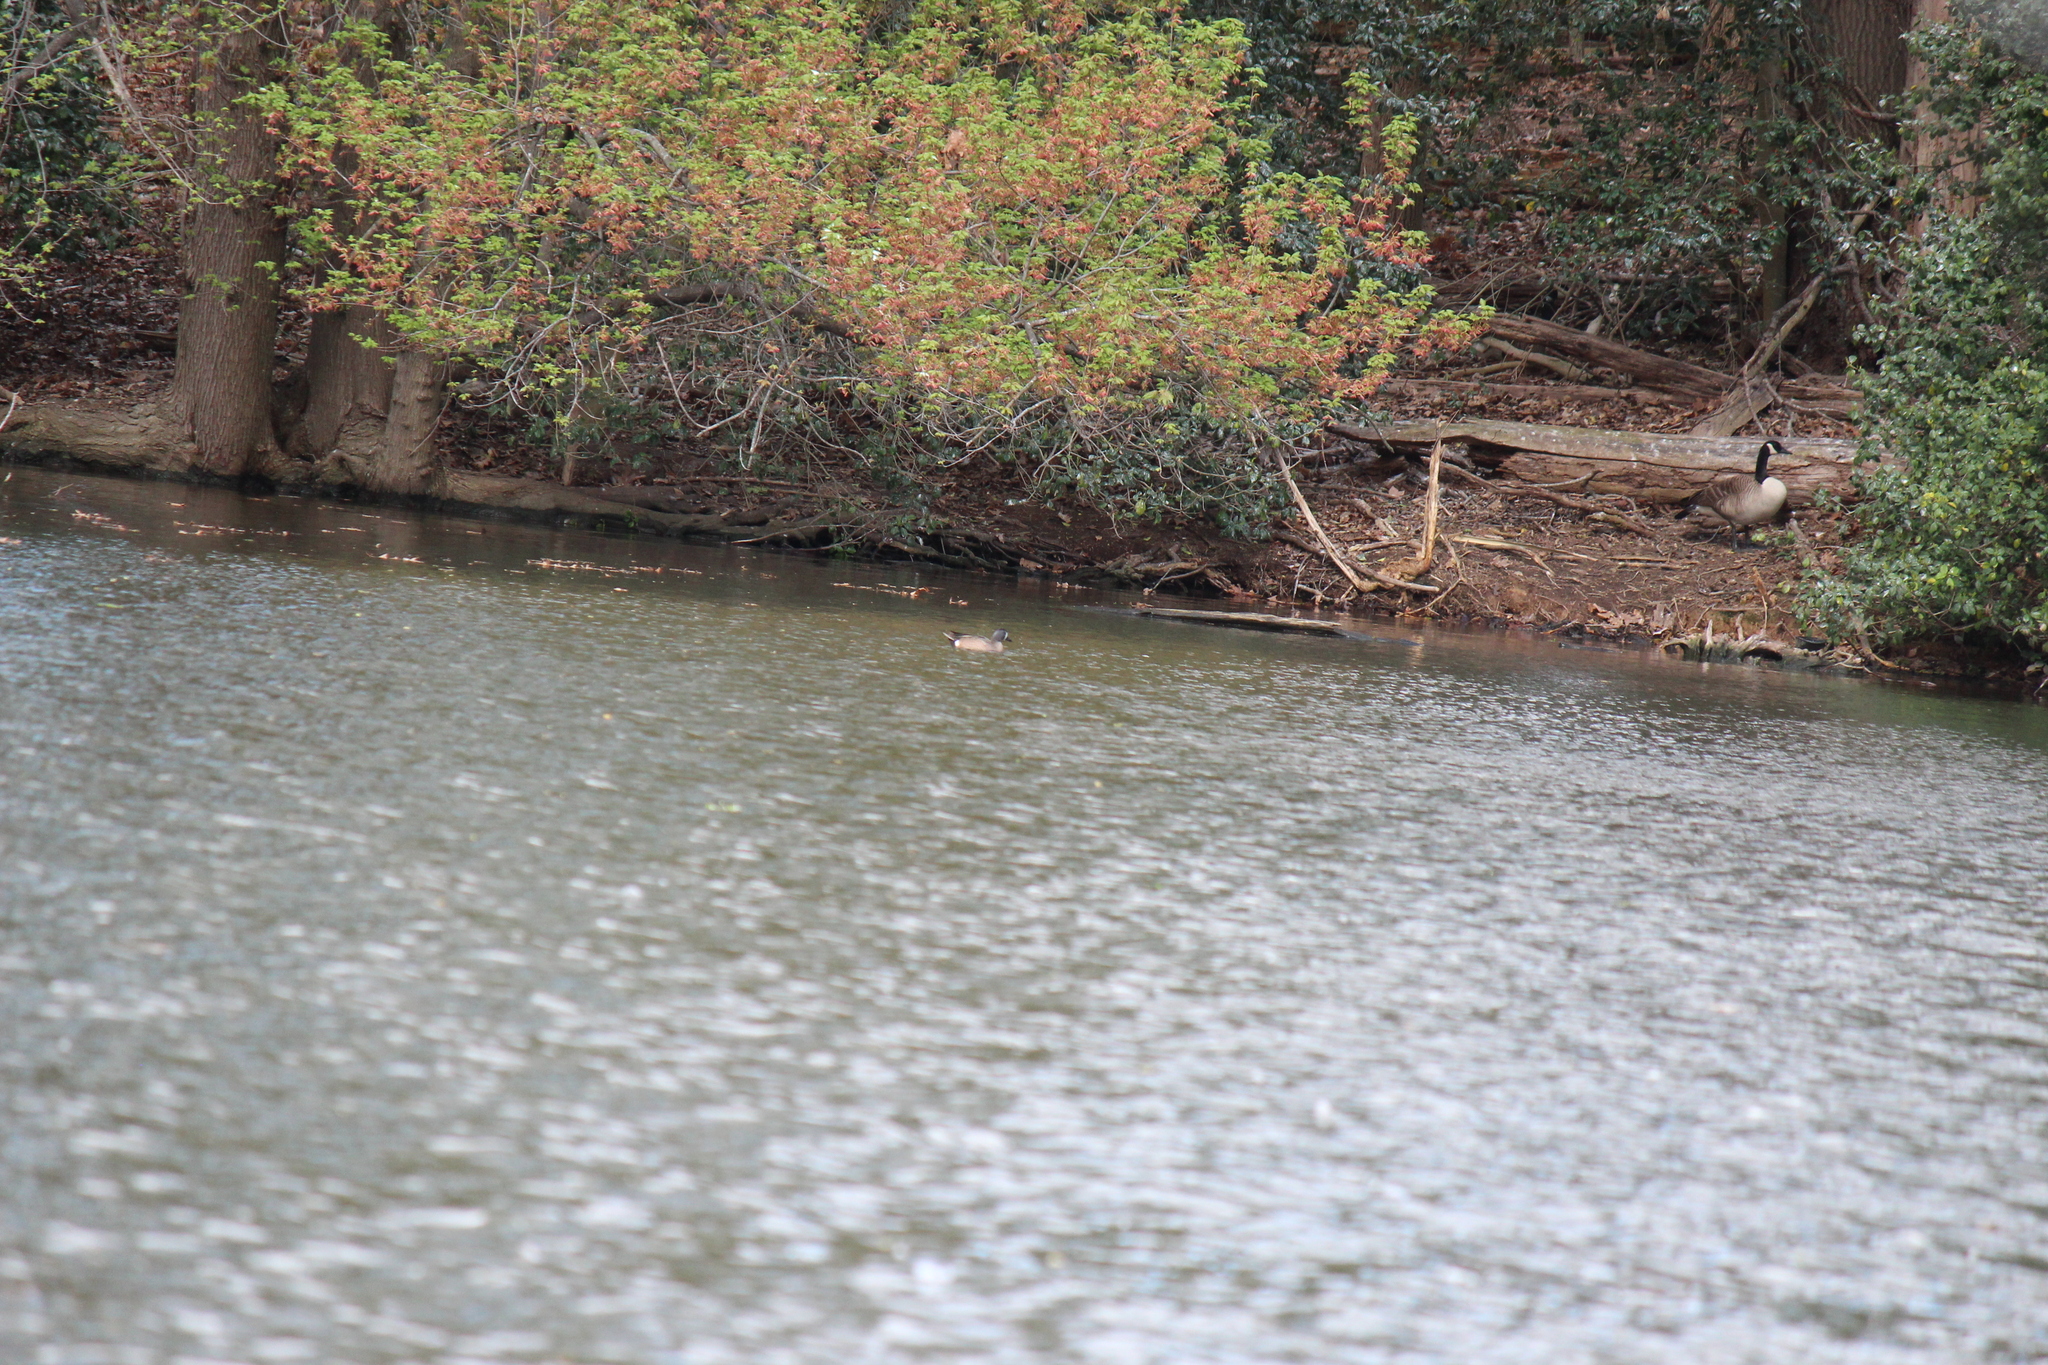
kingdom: Animalia
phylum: Chordata
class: Aves
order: Anseriformes
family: Anatidae
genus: Spatula
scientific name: Spatula discors
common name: Blue-winged teal
